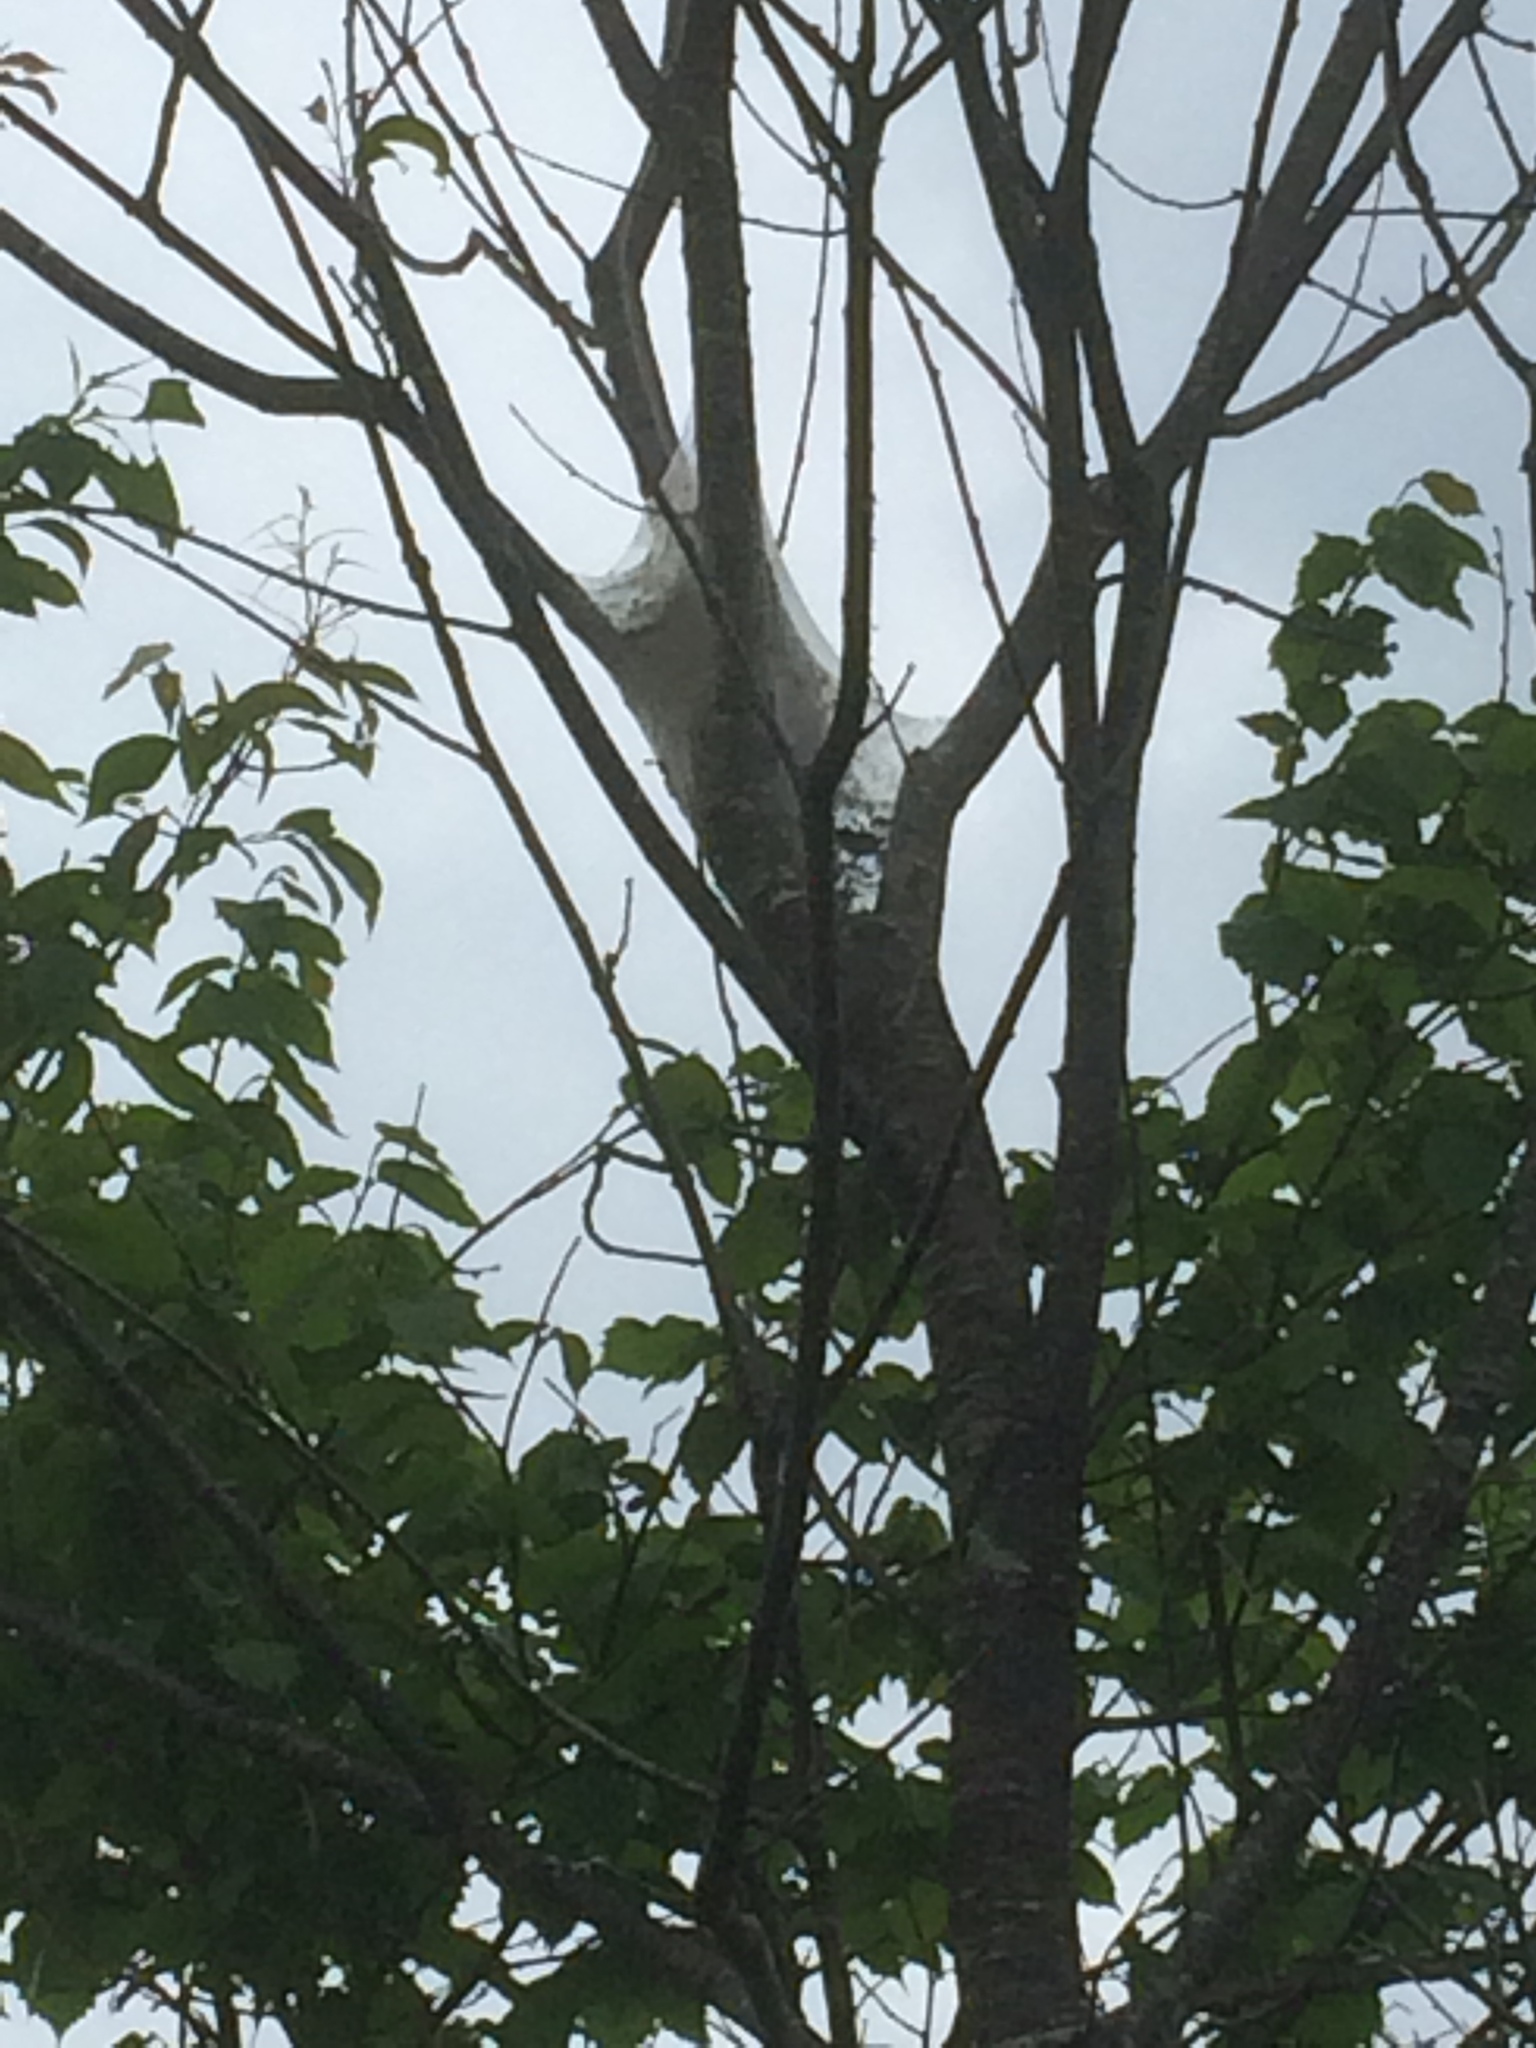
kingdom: Animalia
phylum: Arthropoda
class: Insecta
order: Lepidoptera
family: Lasiocampidae
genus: Malacosoma
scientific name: Malacosoma americana
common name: Eastern tent caterpillar moth
